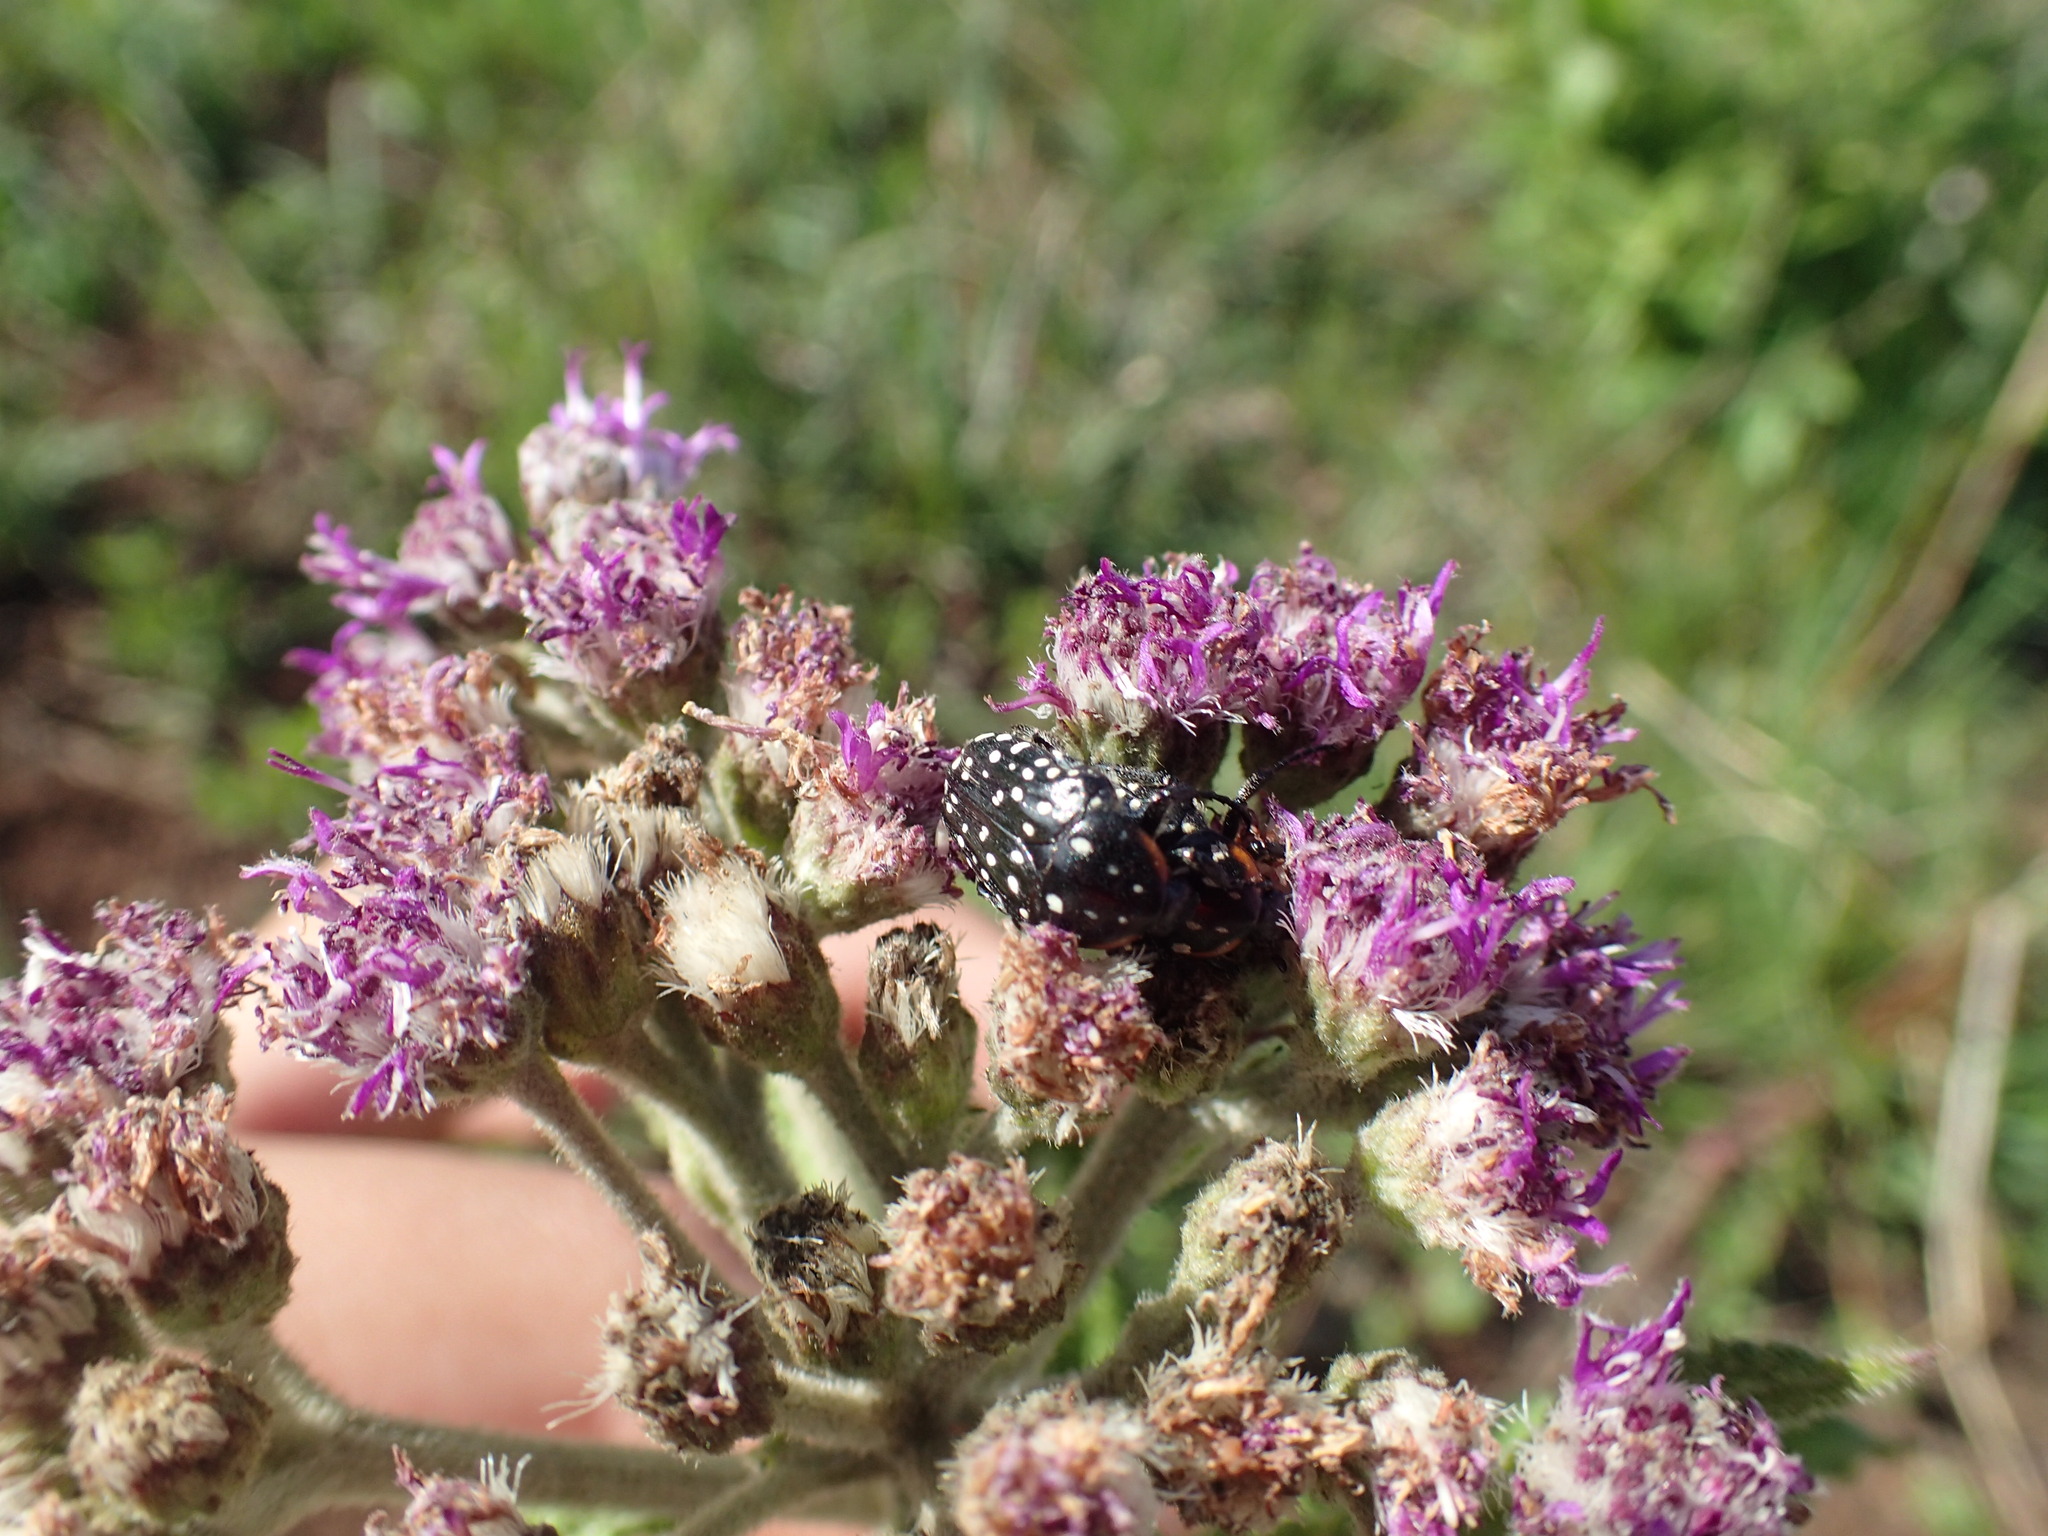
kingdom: Animalia
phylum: Arthropoda
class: Insecta
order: Coleoptera
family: Scarabaeidae
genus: Oxythyrea
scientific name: Oxythyrea
